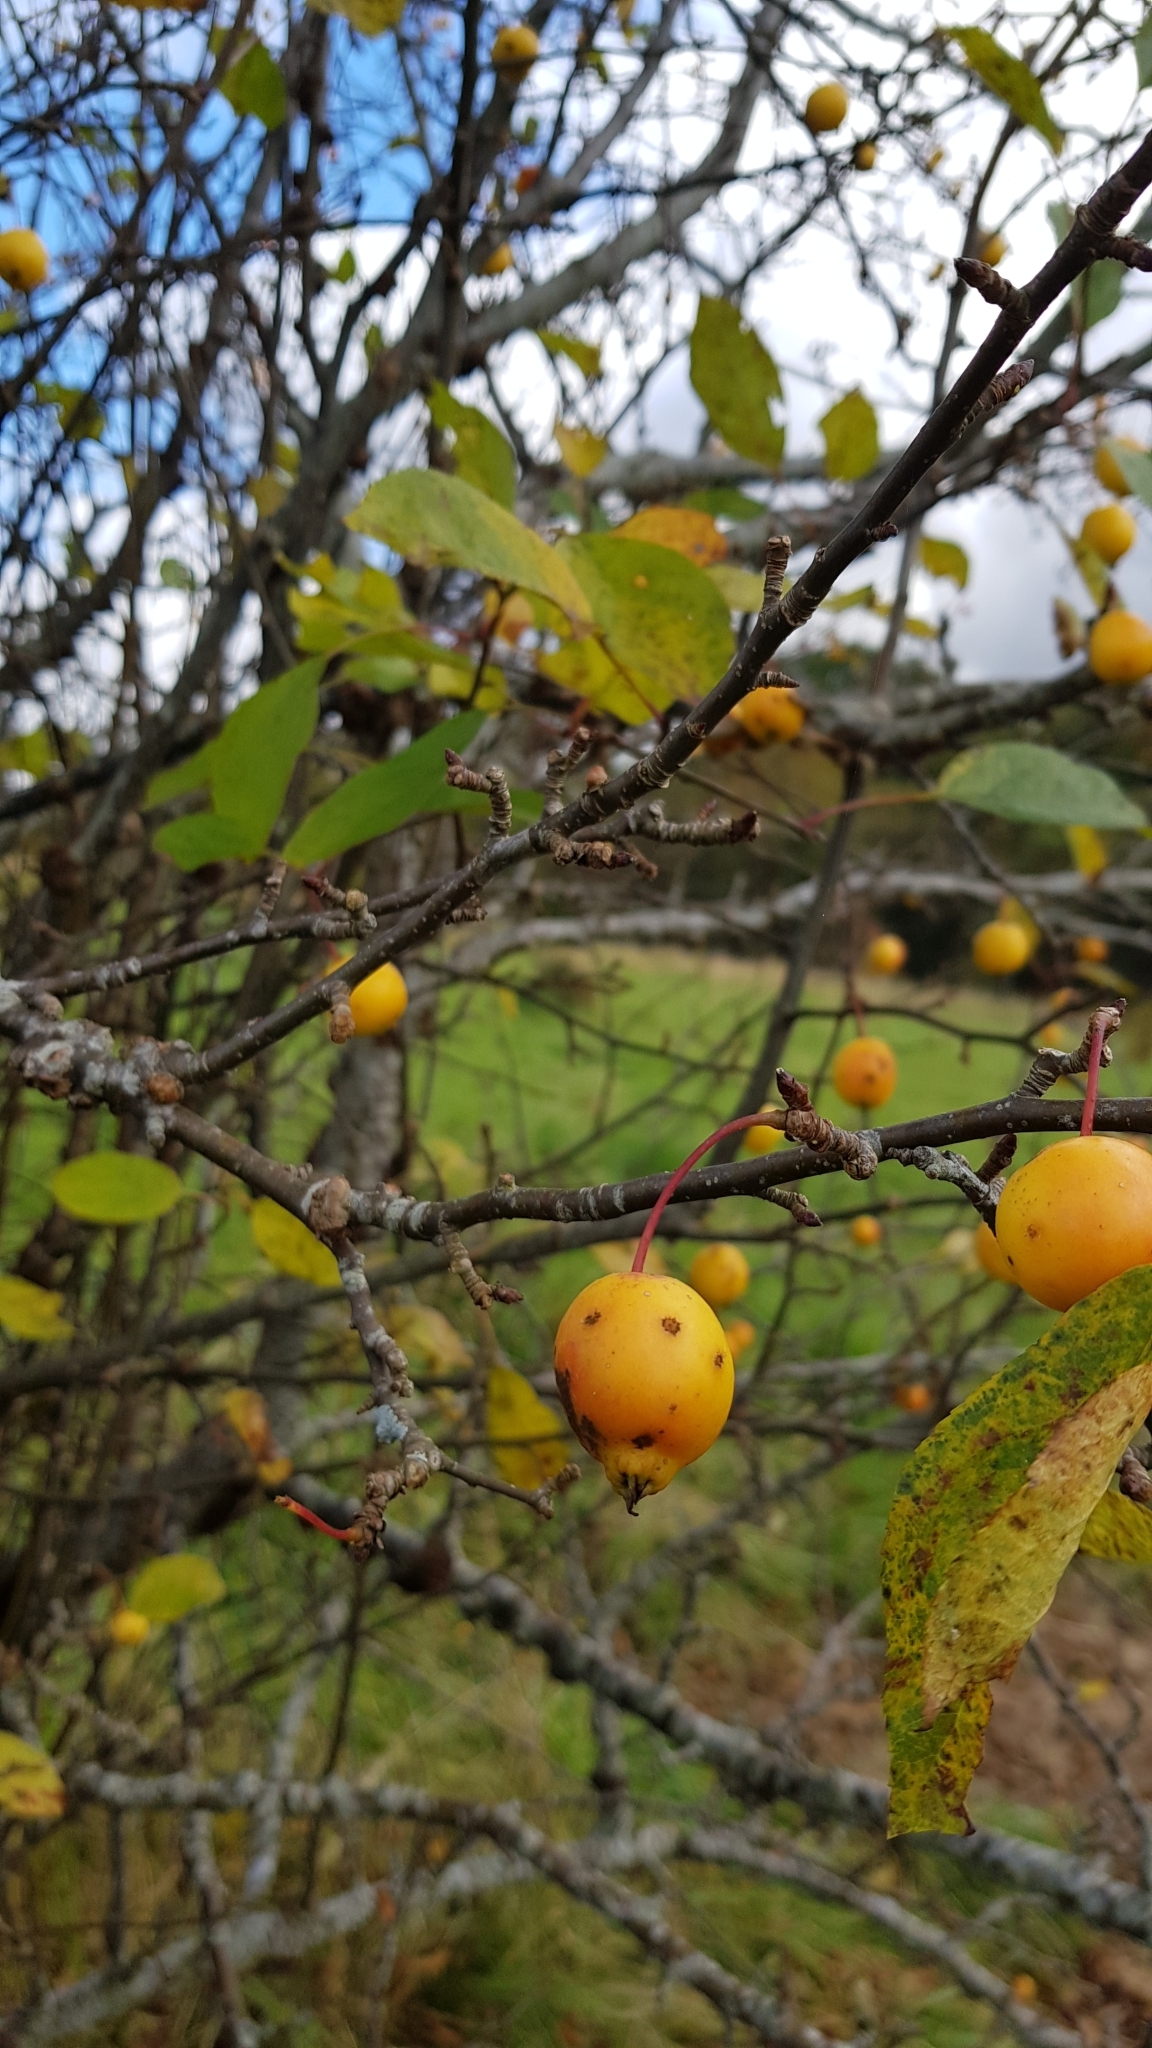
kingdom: Plantae
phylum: Tracheophyta
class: Magnoliopsida
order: Rosales
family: Rosaceae
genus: Malus
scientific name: Malus sylvestris
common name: Crab apple
